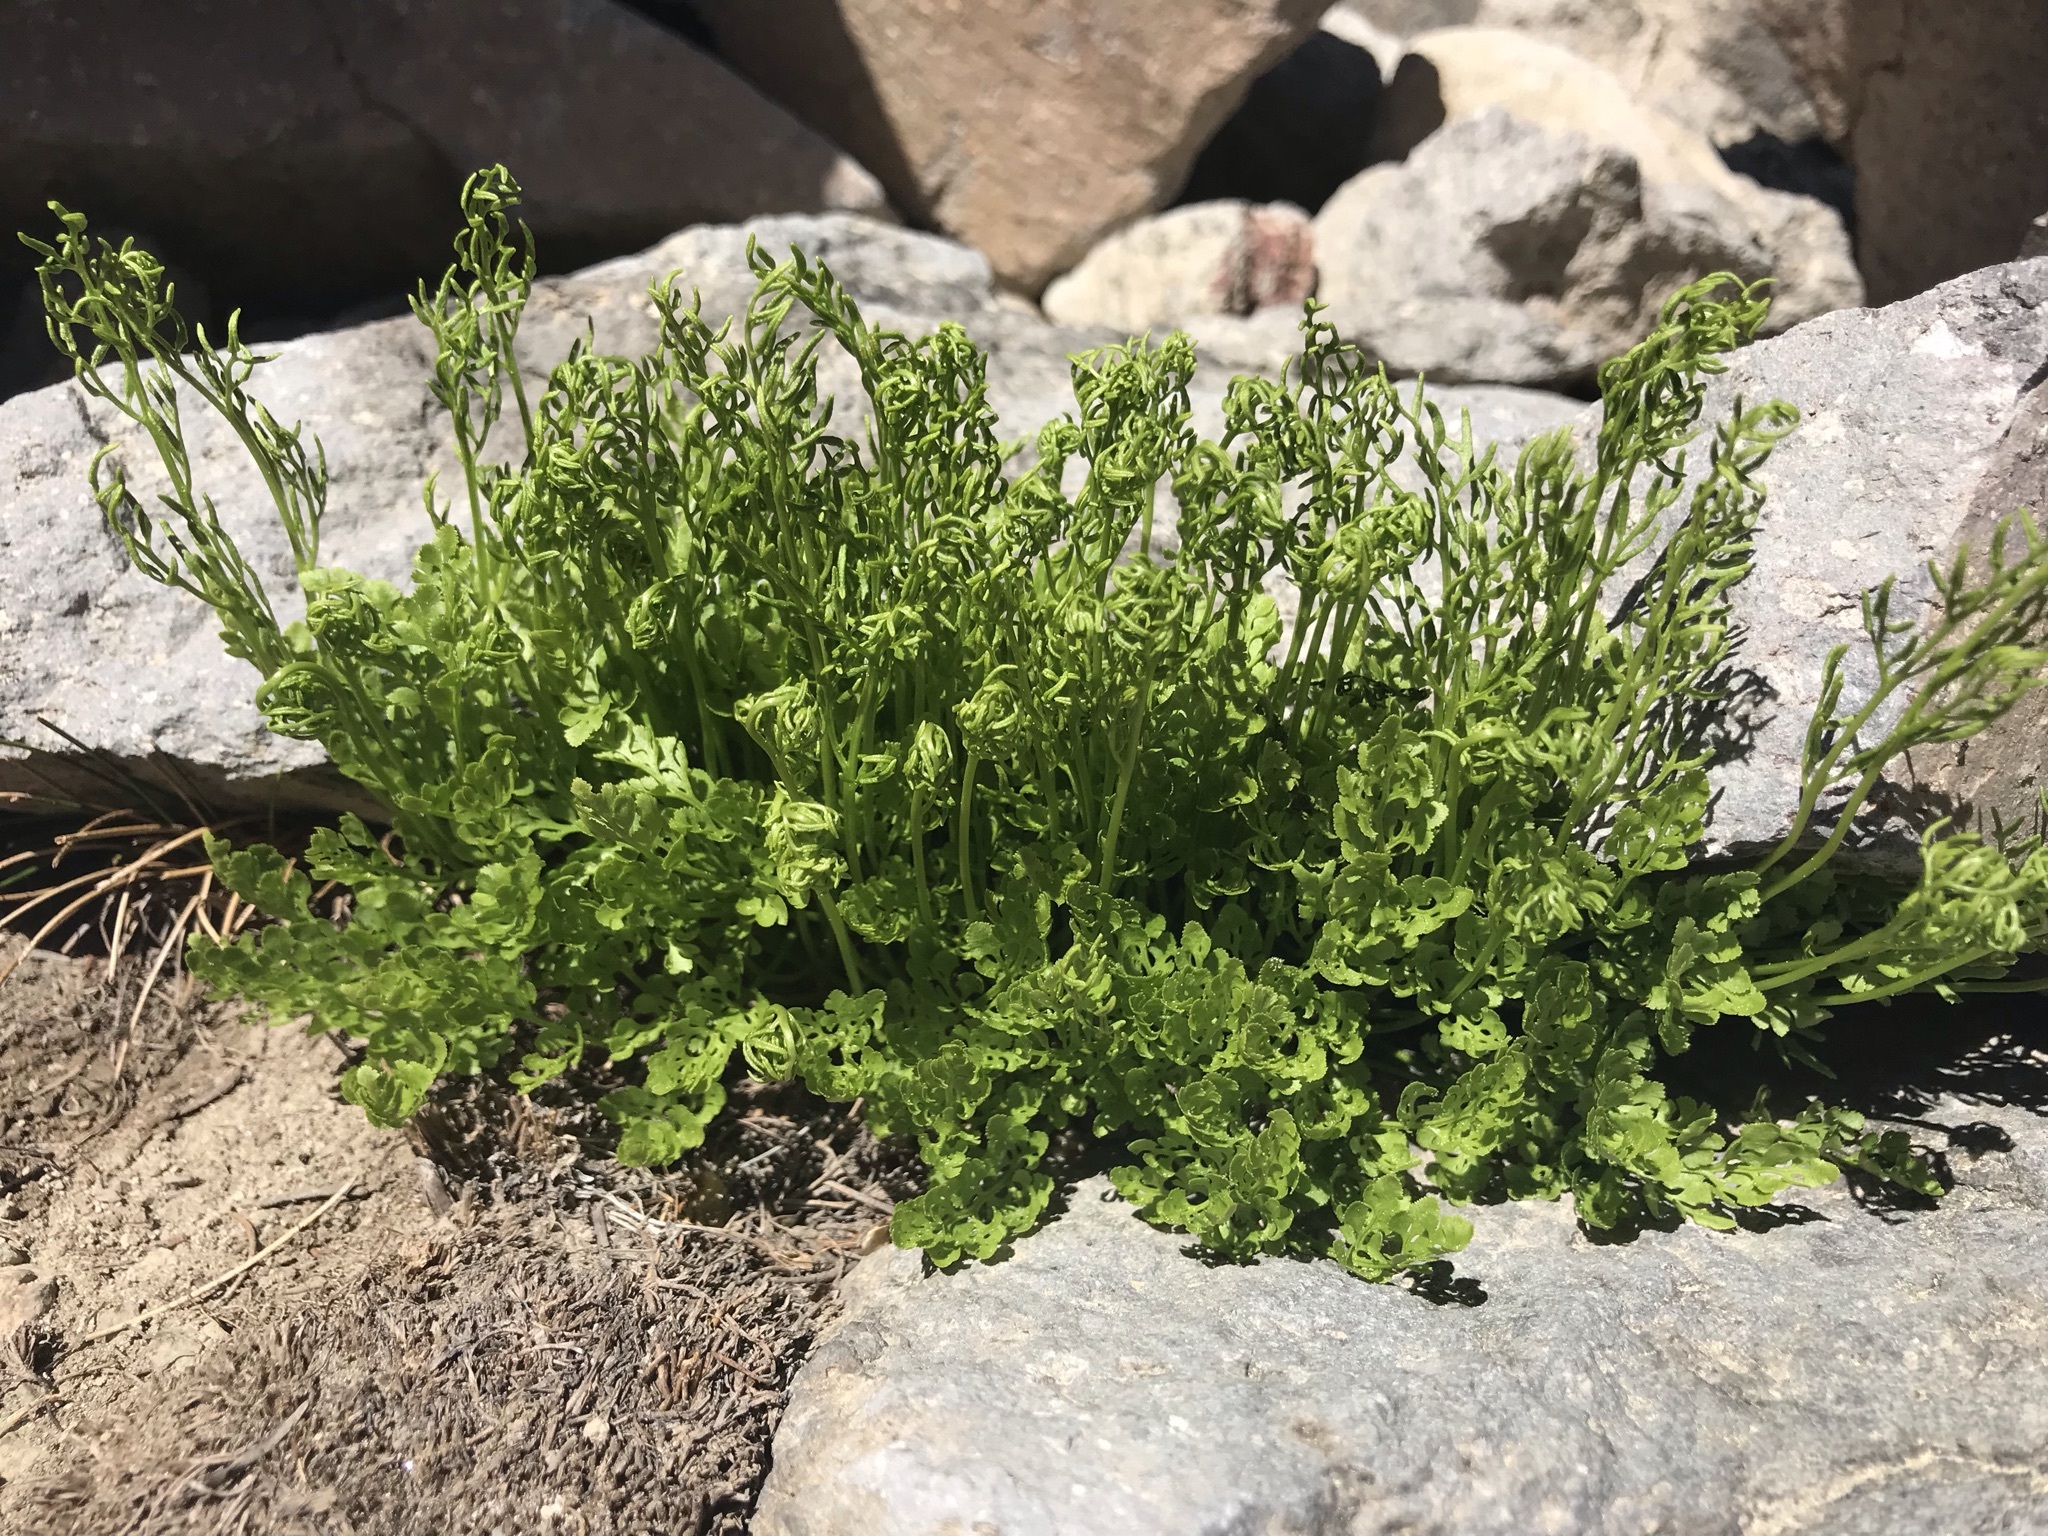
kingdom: Plantae
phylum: Tracheophyta
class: Polypodiopsida
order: Polypodiales
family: Pteridaceae
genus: Cryptogramma
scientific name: Cryptogramma cascadensis
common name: Cascade parsley fern
